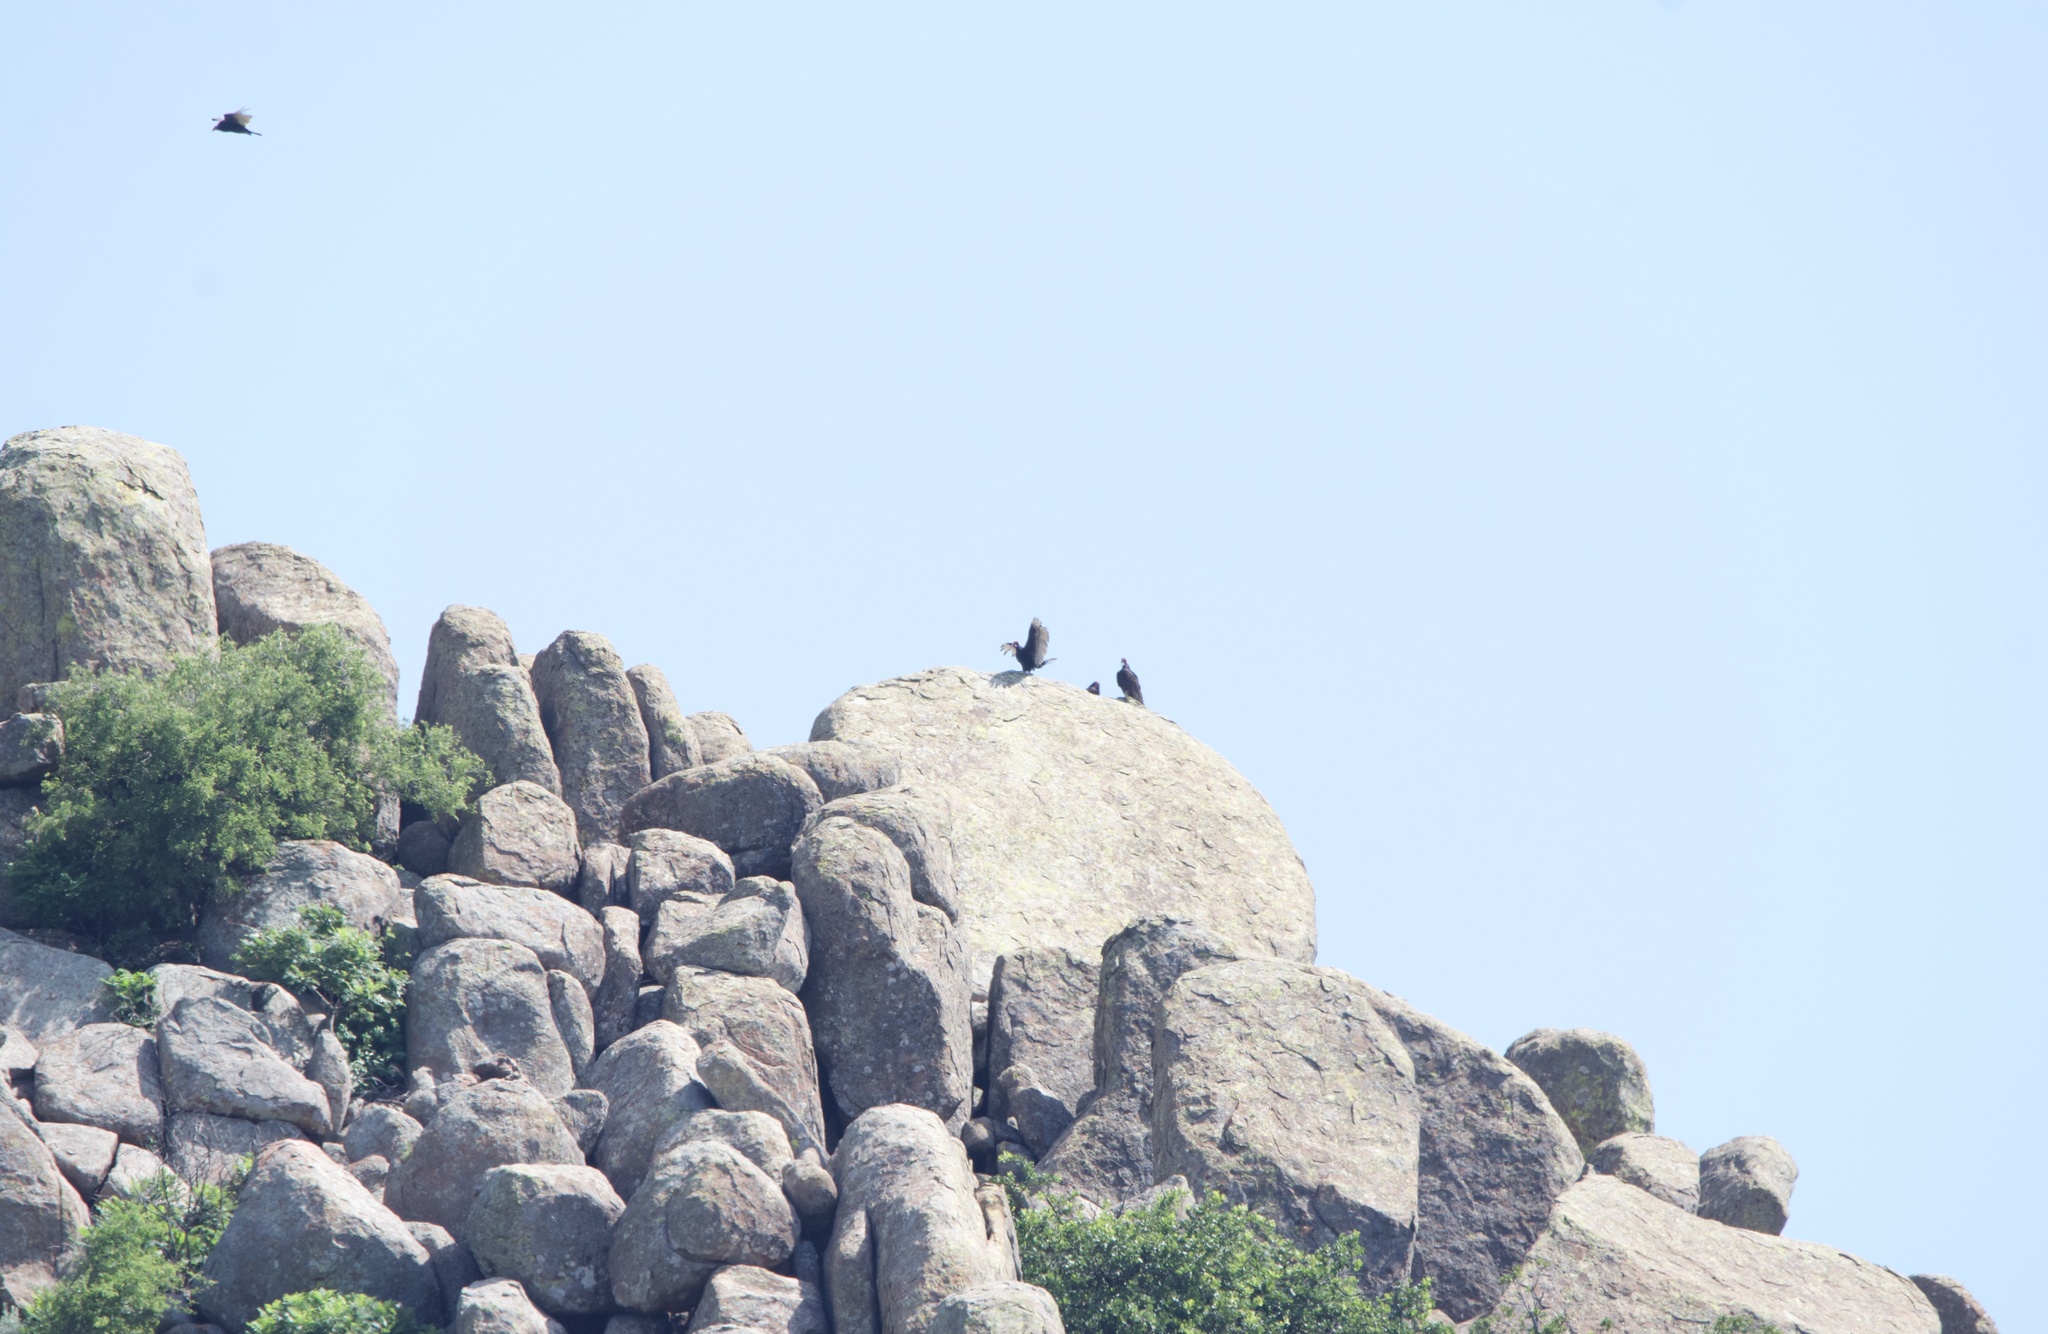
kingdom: Animalia
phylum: Chordata
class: Aves
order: Accipitriformes
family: Cathartidae
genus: Cathartes
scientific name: Cathartes aura
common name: Turkey vulture
